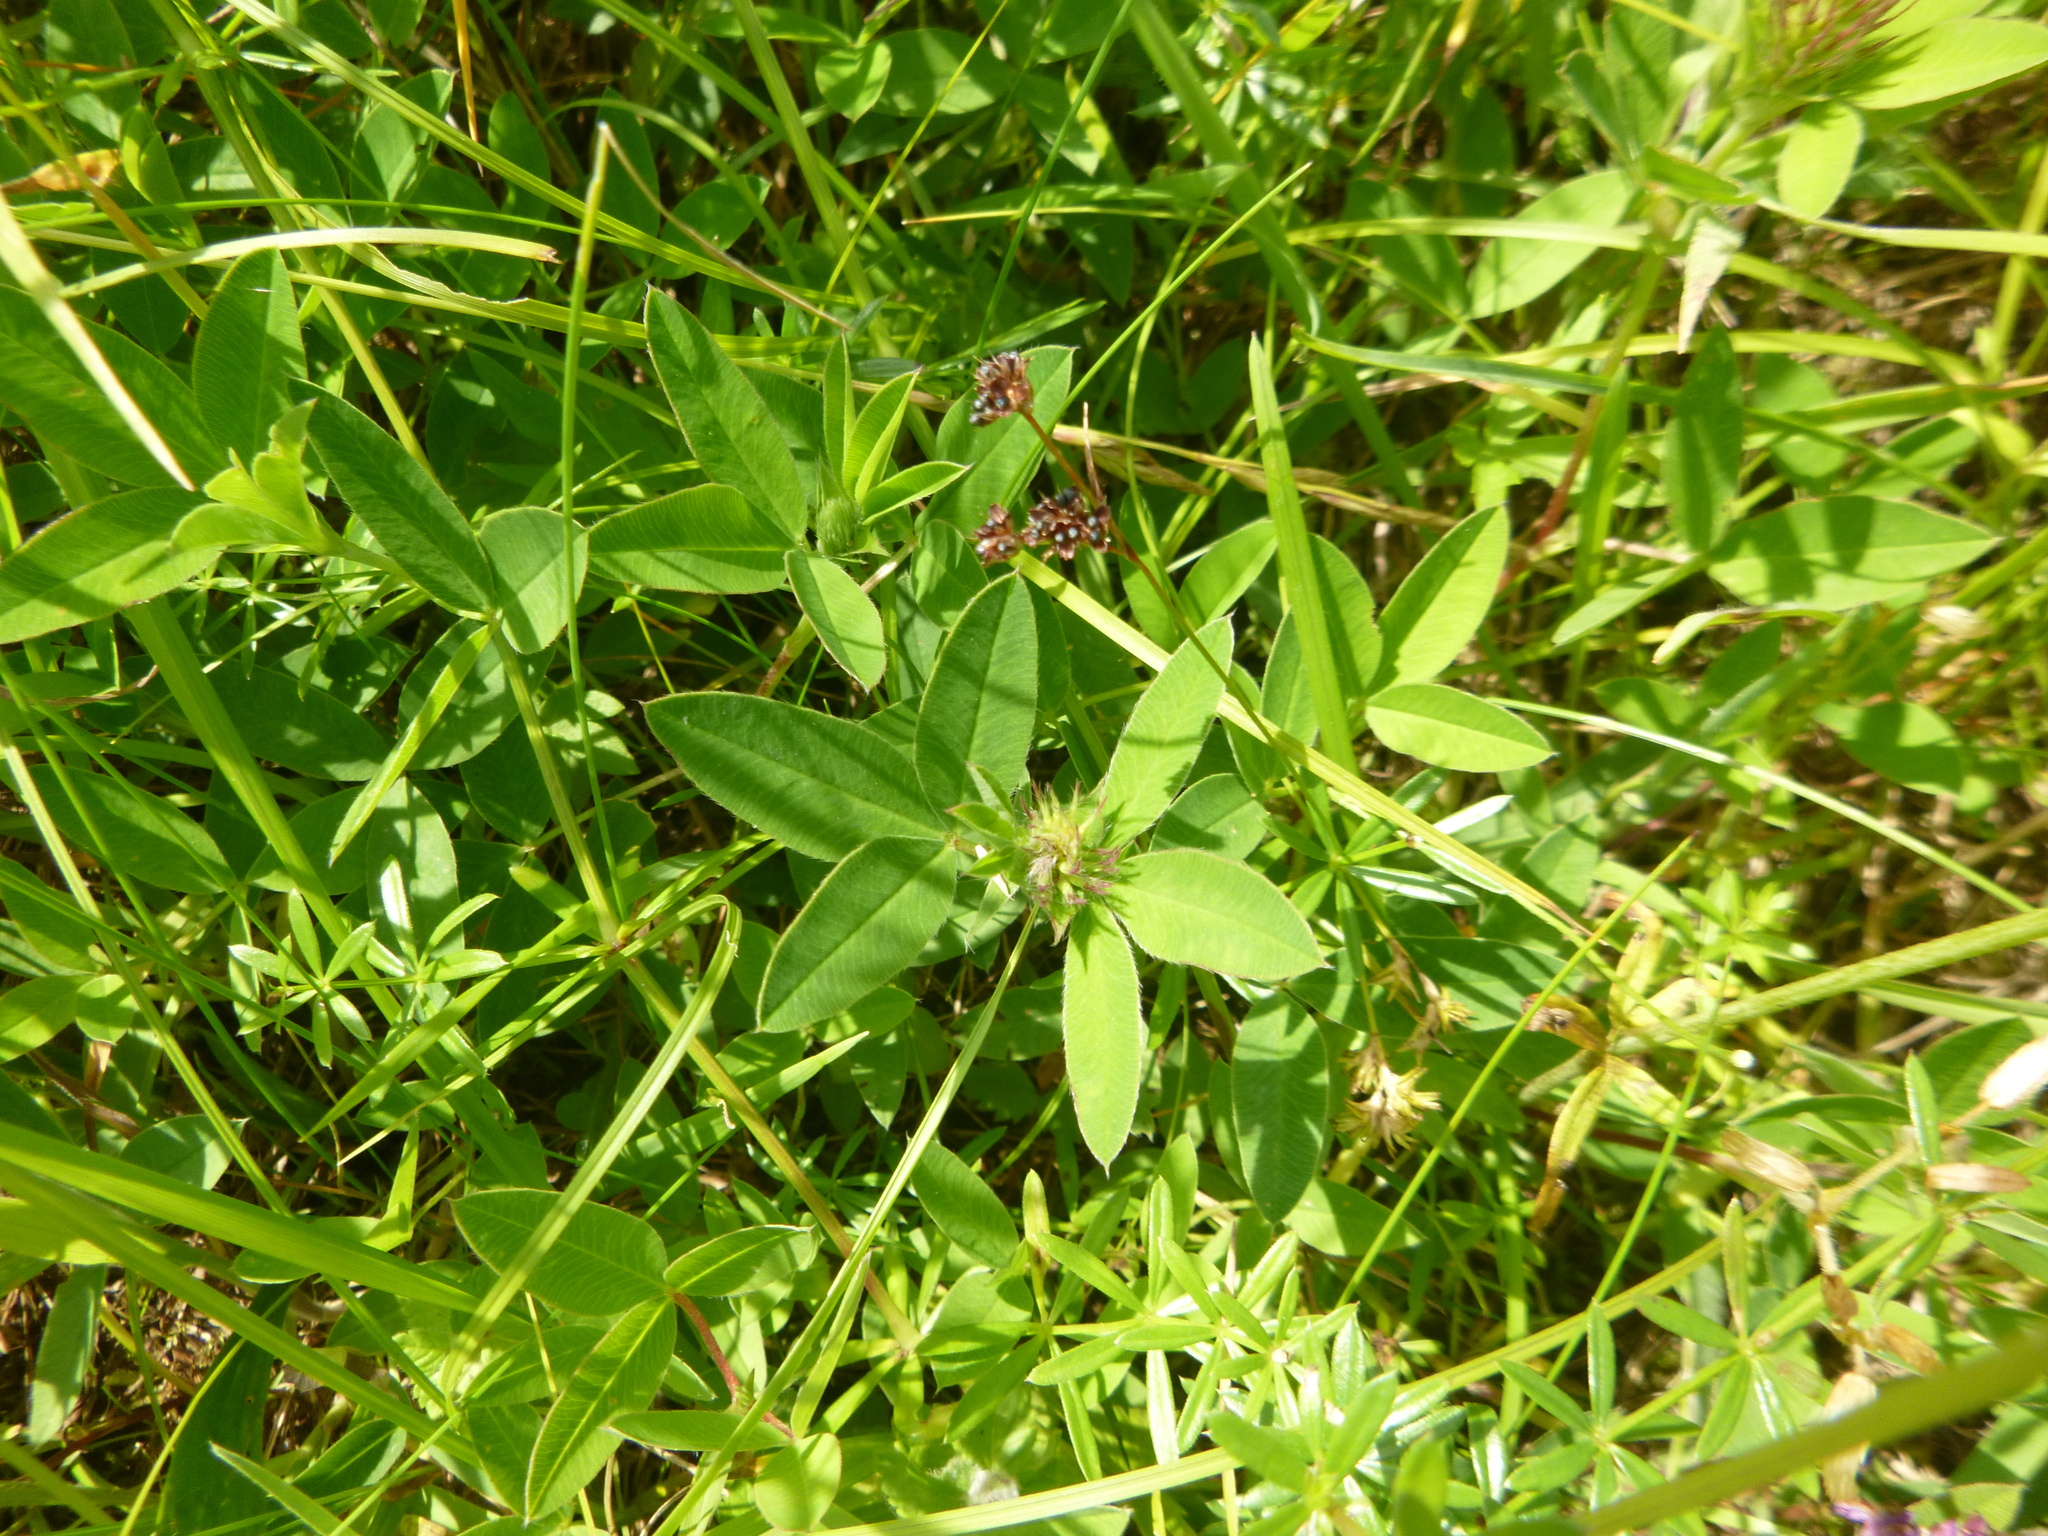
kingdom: Plantae
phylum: Tracheophyta
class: Magnoliopsida
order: Fabales
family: Fabaceae
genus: Trifolium
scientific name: Trifolium medium
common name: Zigzag clover
